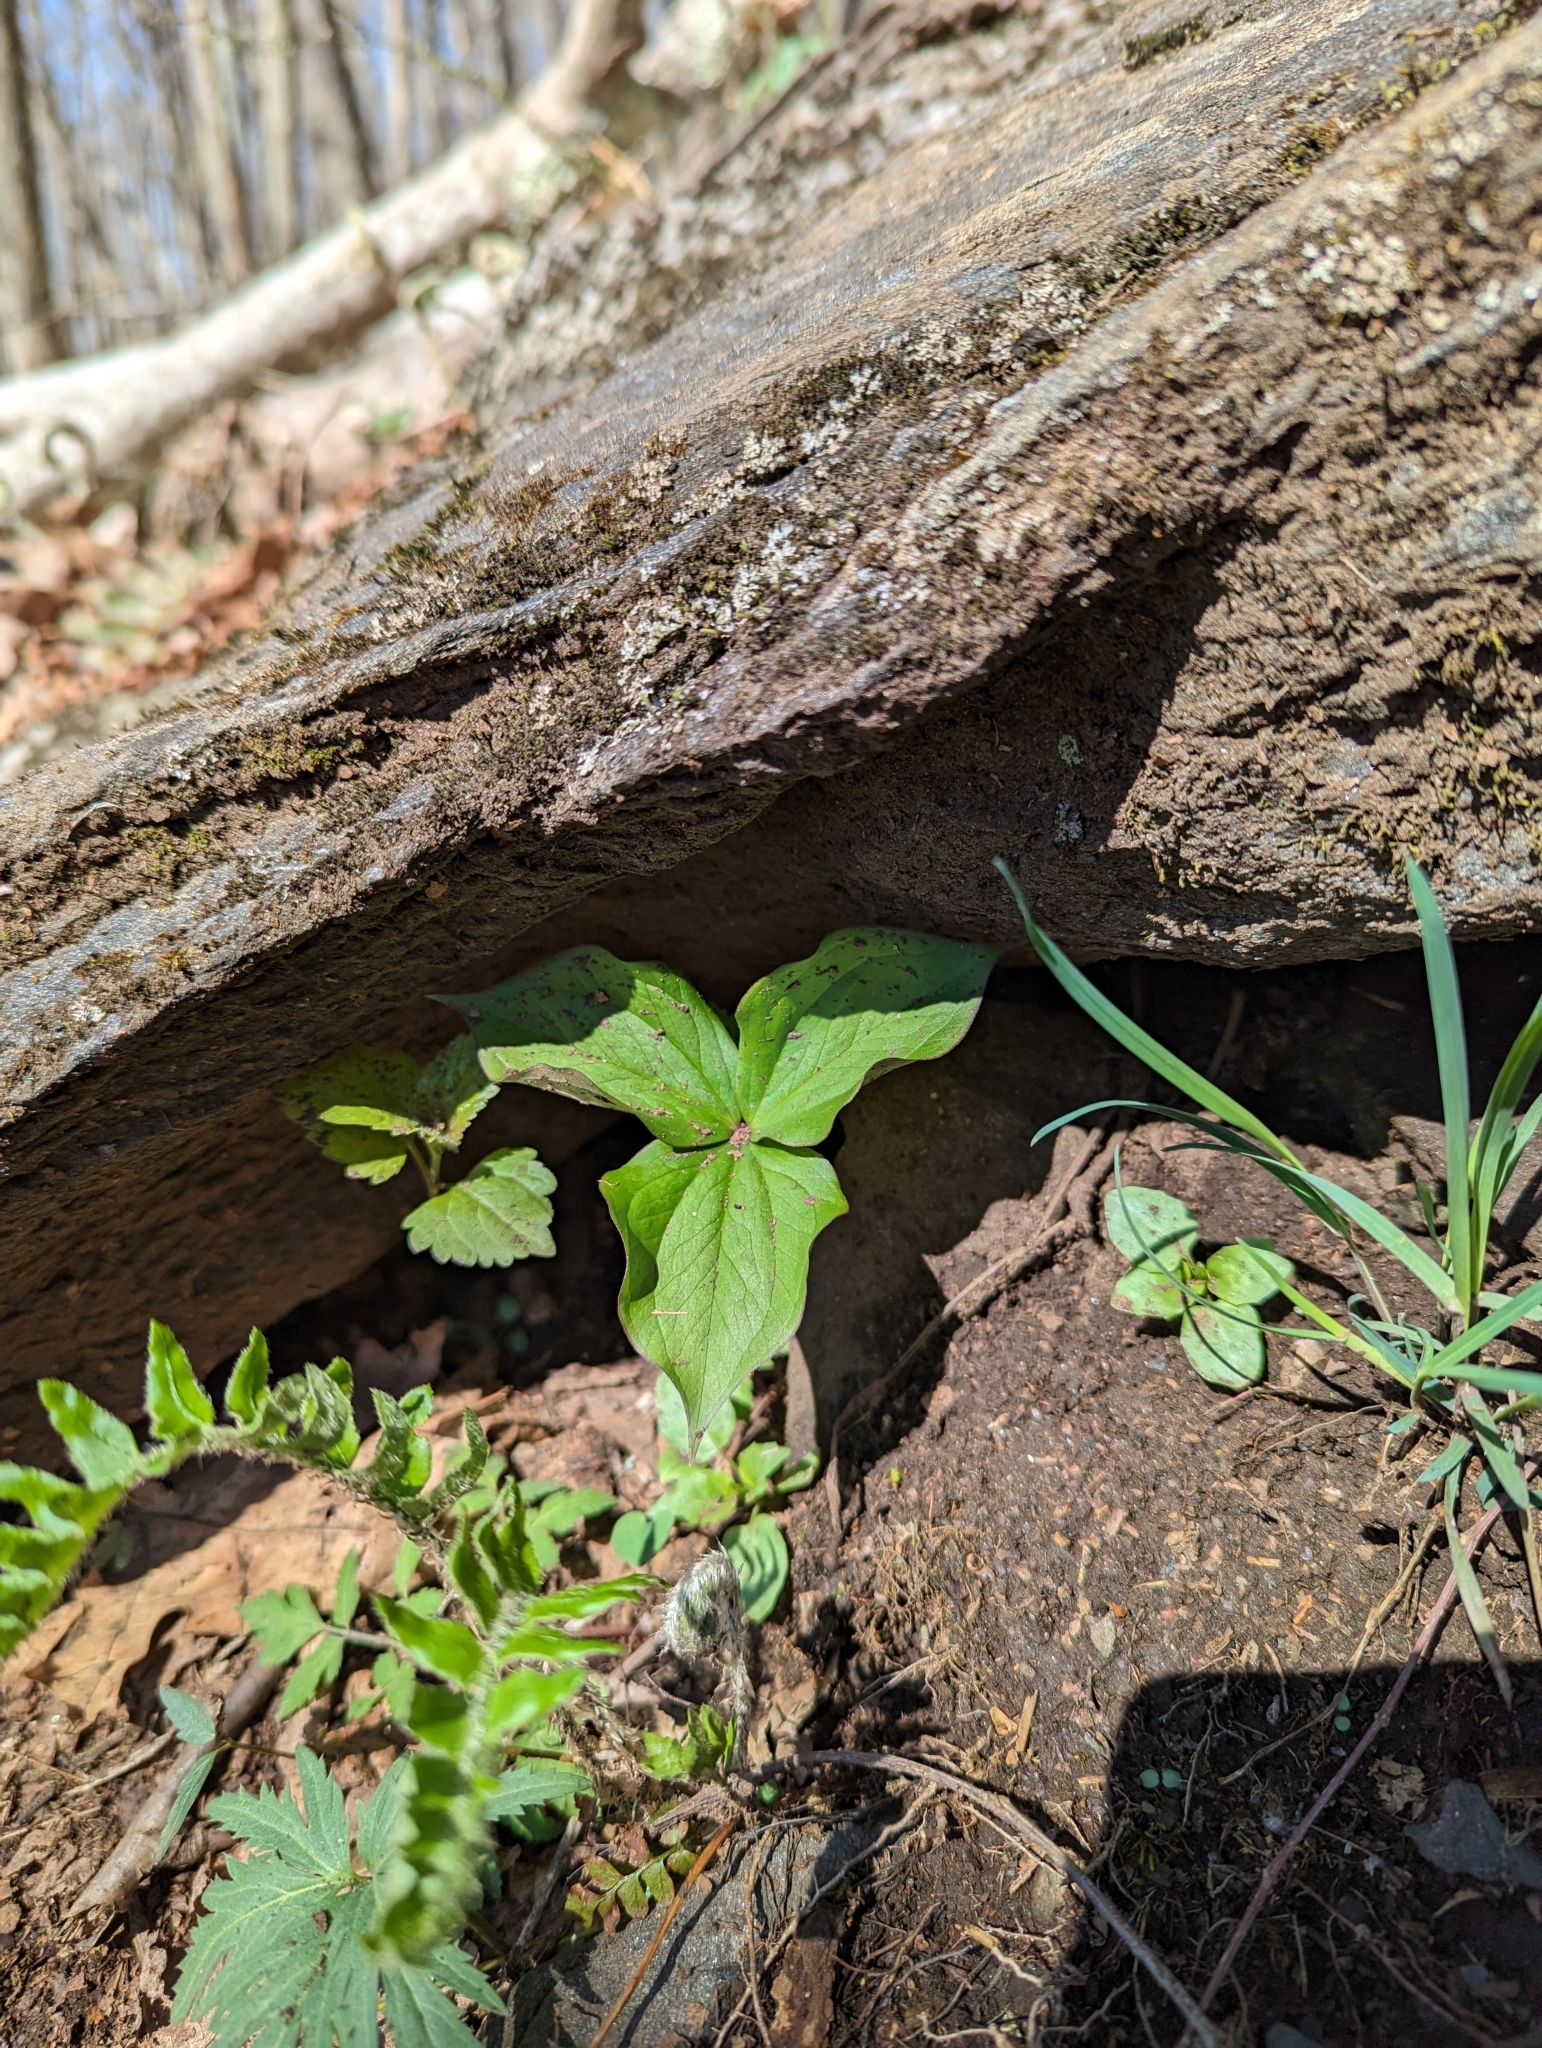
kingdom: Plantae
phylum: Tracheophyta
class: Liliopsida
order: Liliales
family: Melanthiaceae
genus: Trillium
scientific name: Trillium grandiflorum
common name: Great white trillium
